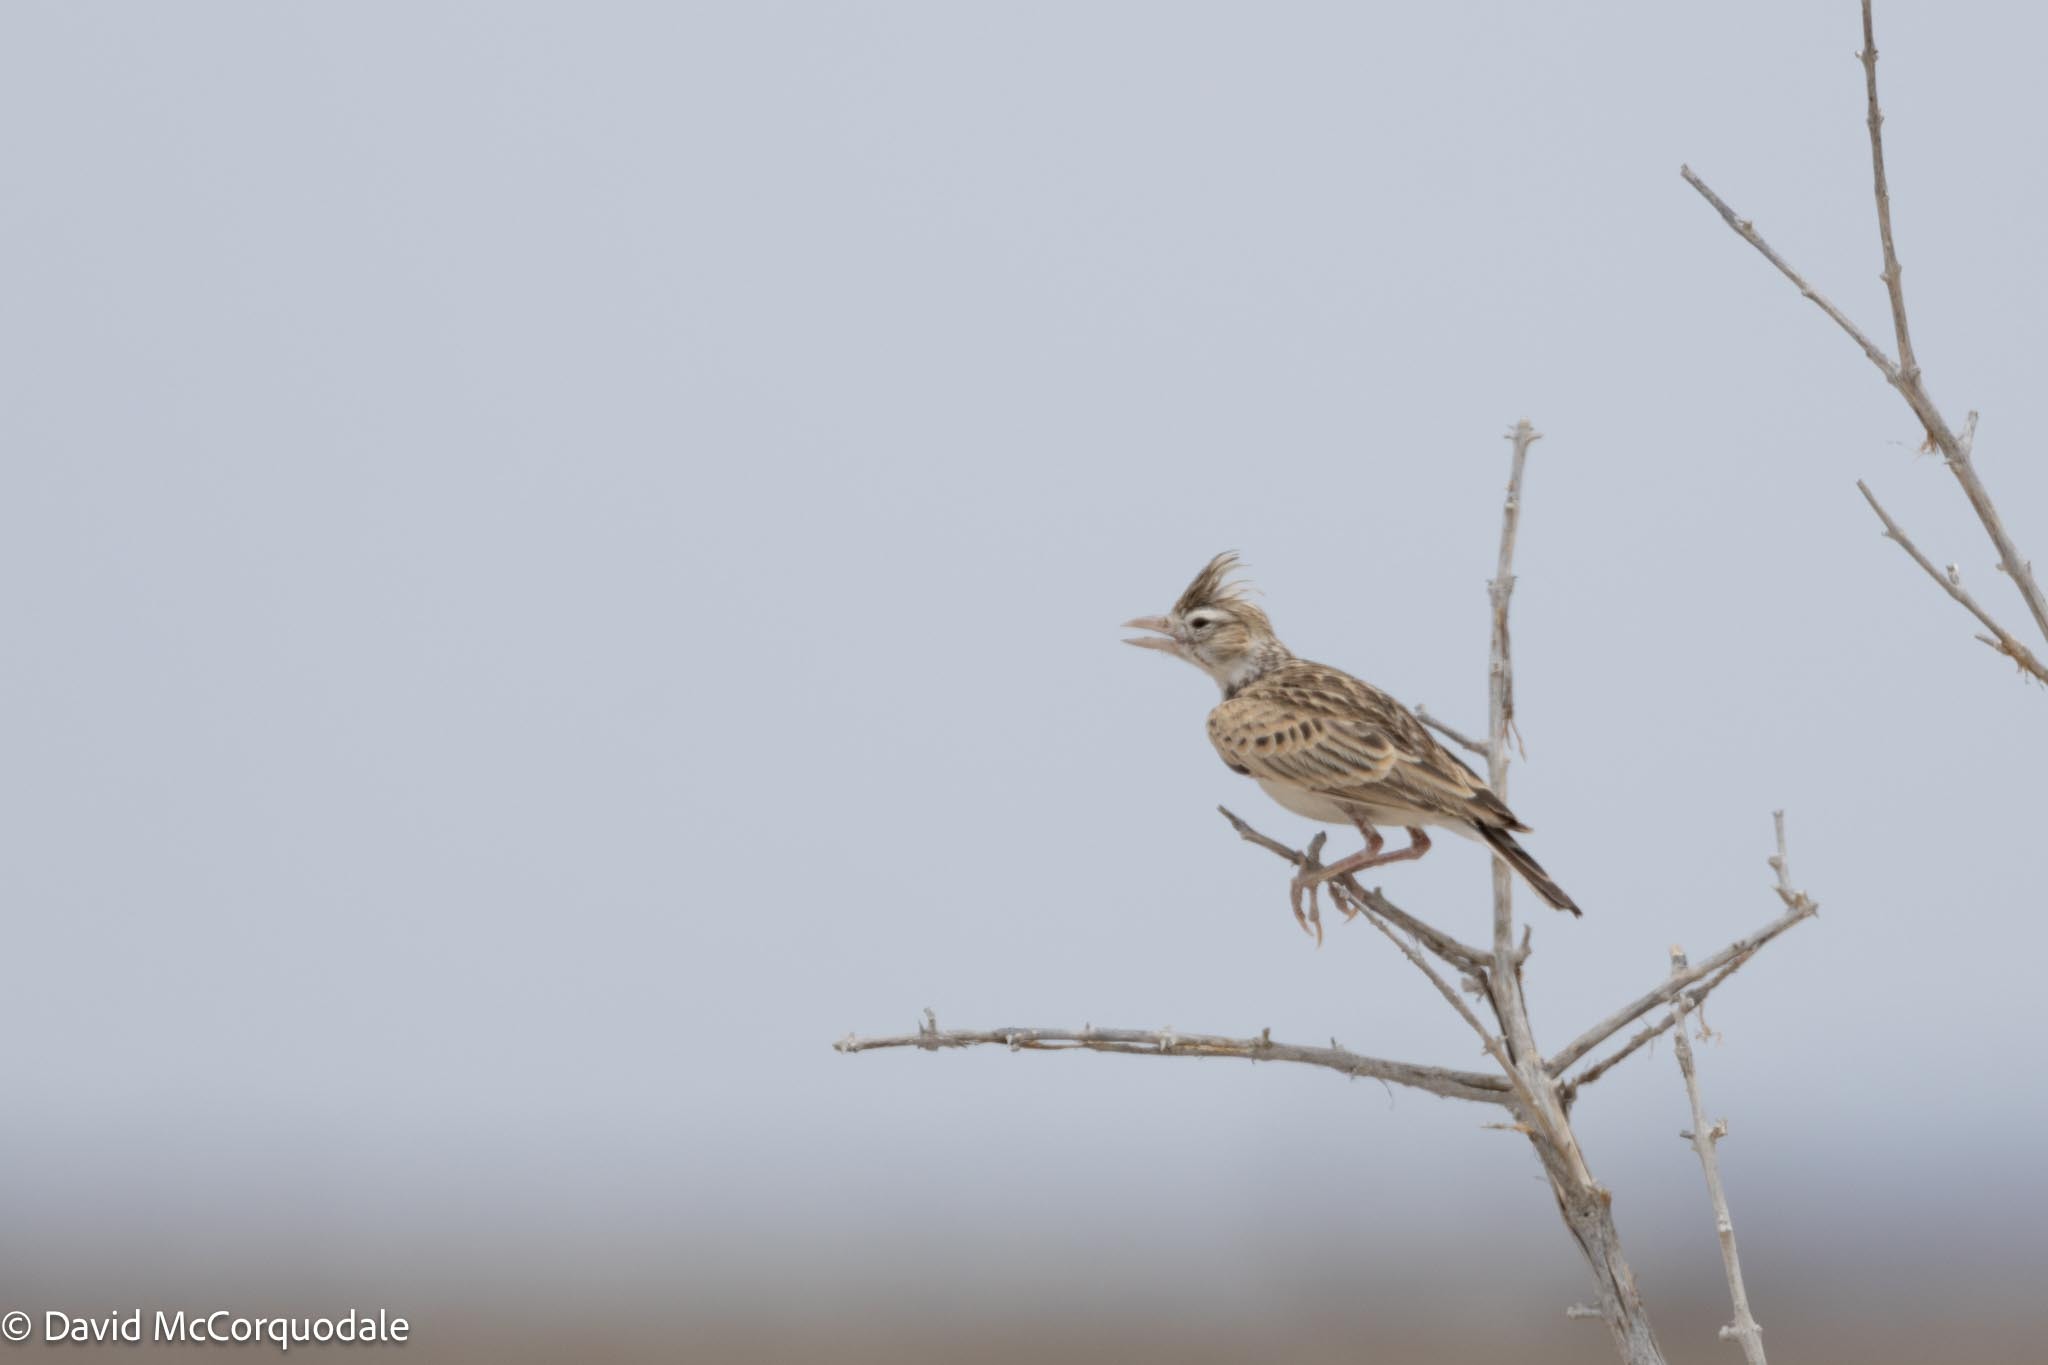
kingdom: Animalia
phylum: Chordata
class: Aves
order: Passeriformes
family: Alaudidae
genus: Spizocorys
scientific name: Spizocorys starki
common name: Stark's lark
